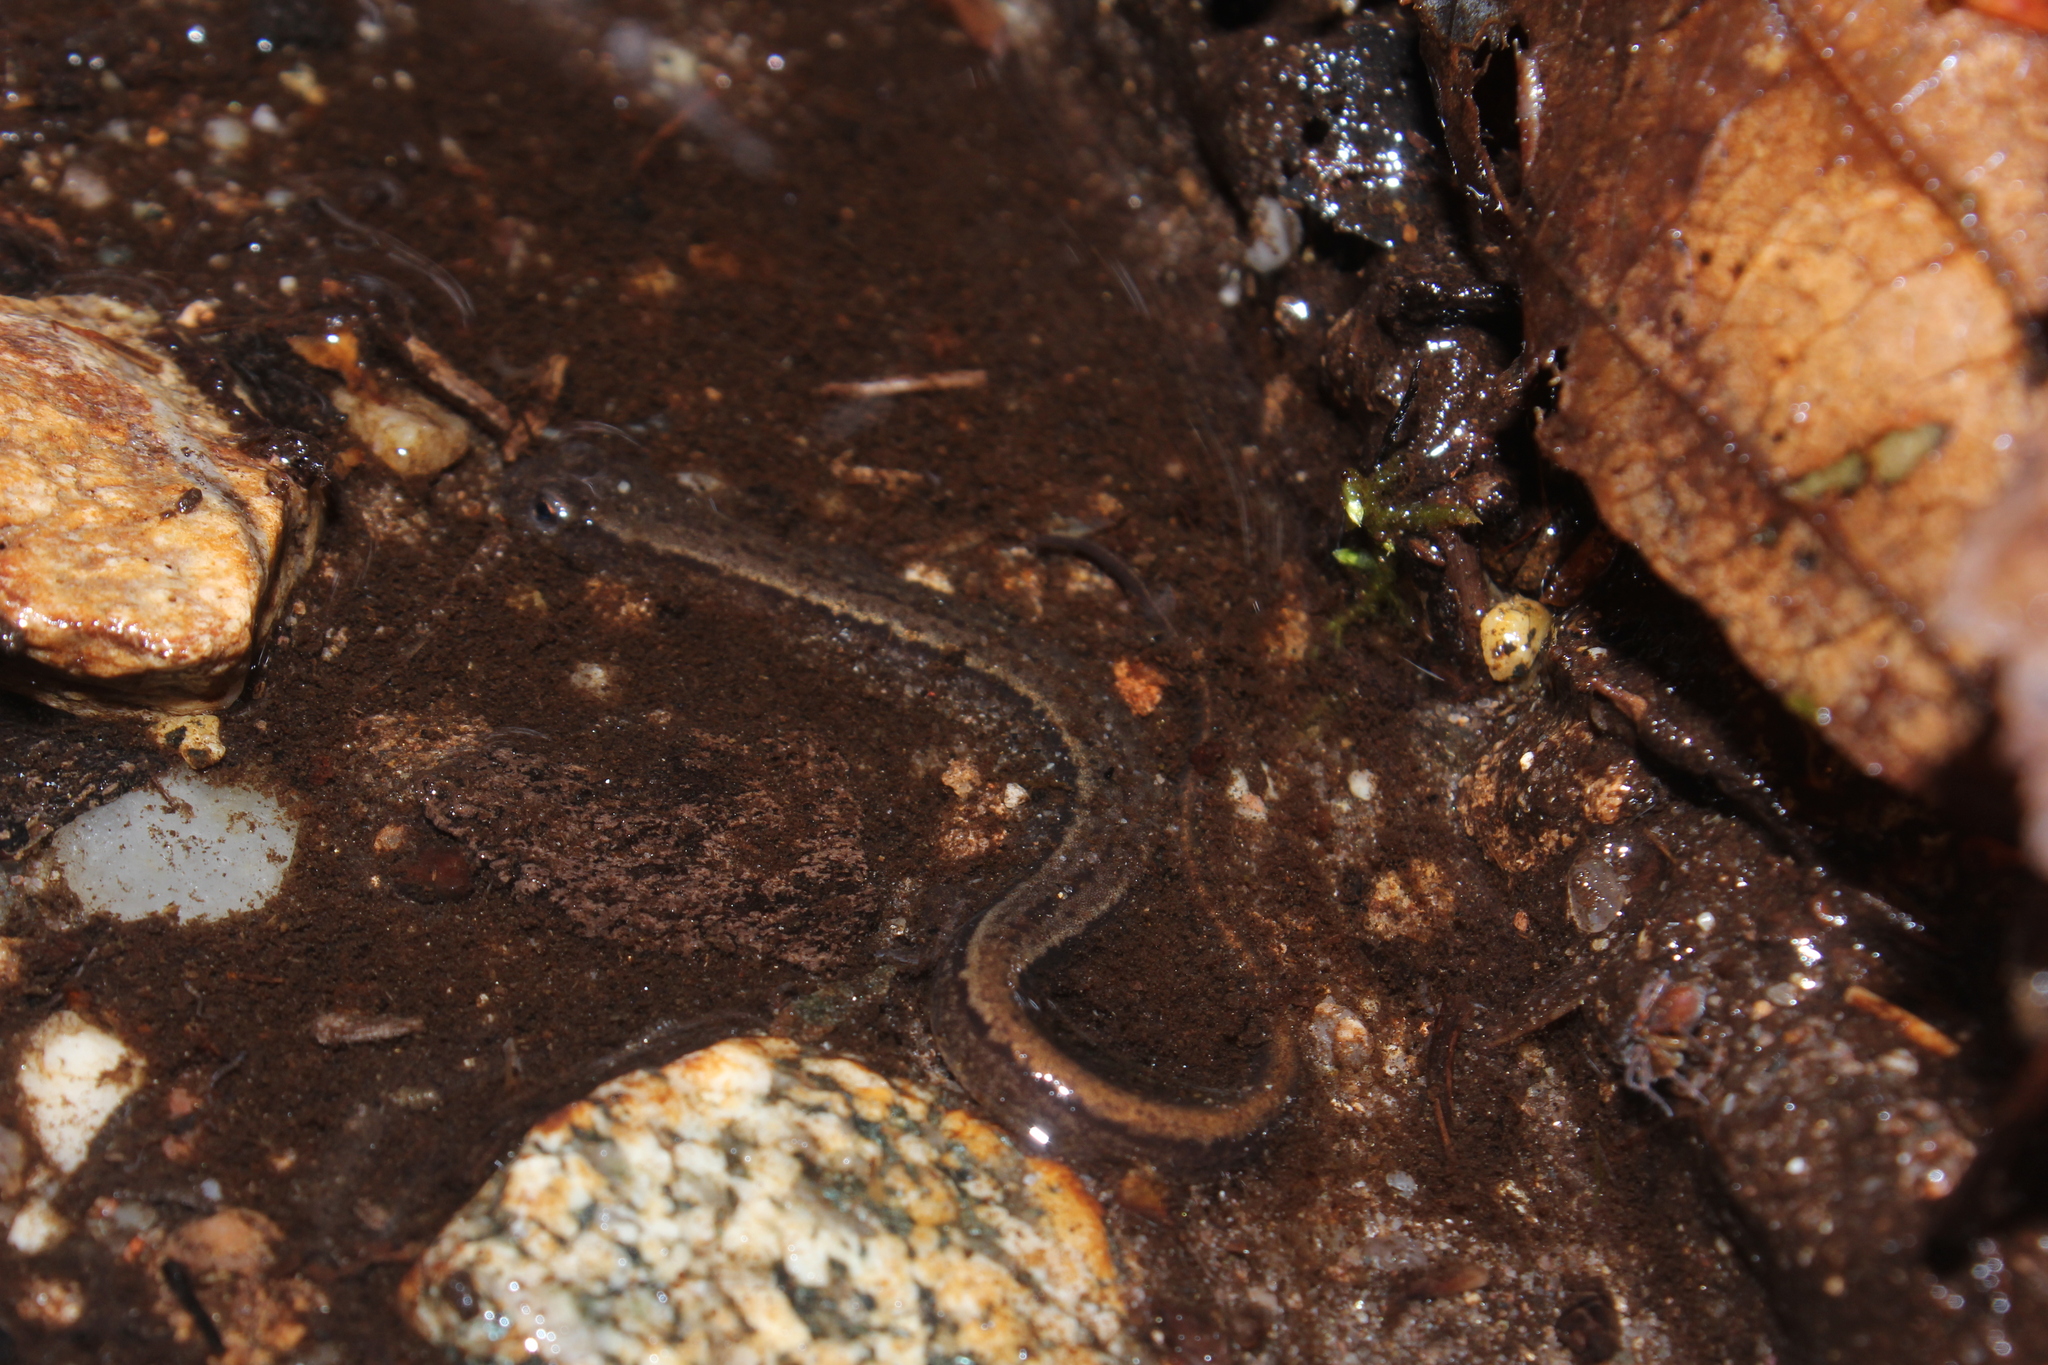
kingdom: Animalia
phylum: Chordata
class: Amphibia
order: Caudata
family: Plethodontidae
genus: Eurycea
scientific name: Eurycea bislineata
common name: Northern two-lined salamander
